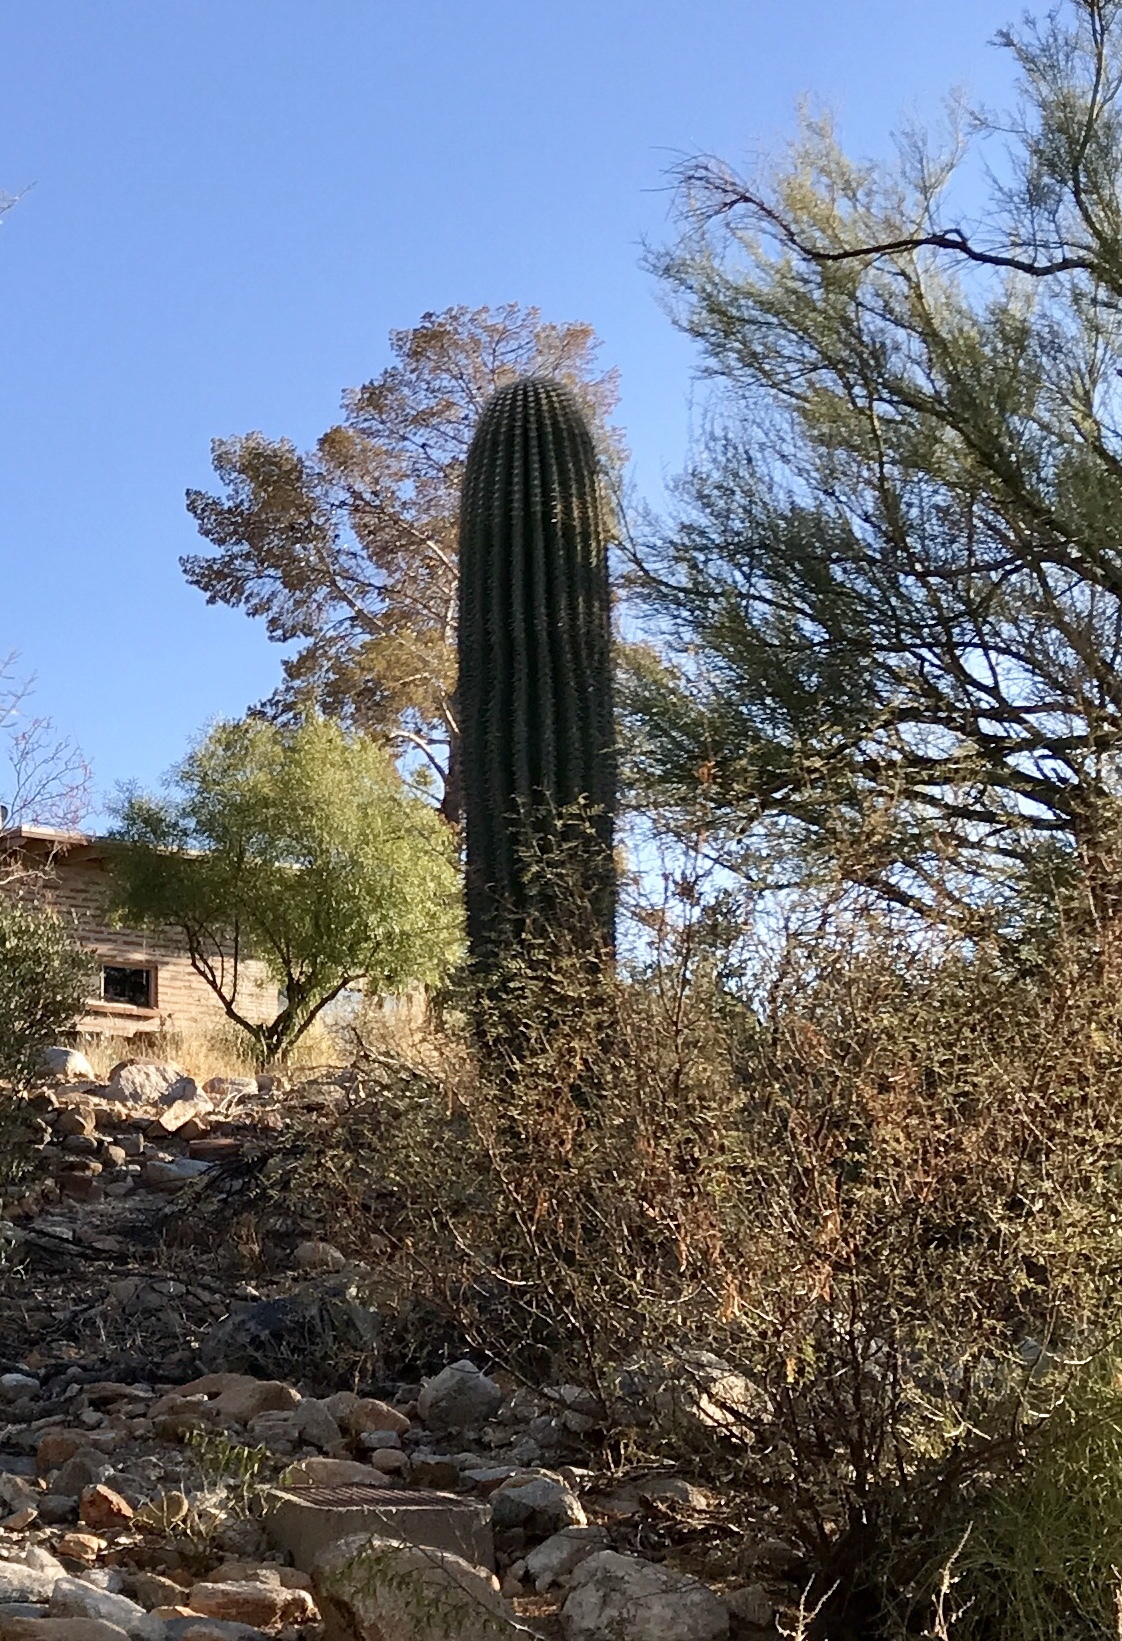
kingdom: Plantae
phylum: Tracheophyta
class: Magnoliopsida
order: Caryophyllales
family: Cactaceae
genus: Carnegiea
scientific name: Carnegiea gigantea
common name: Saguaro
